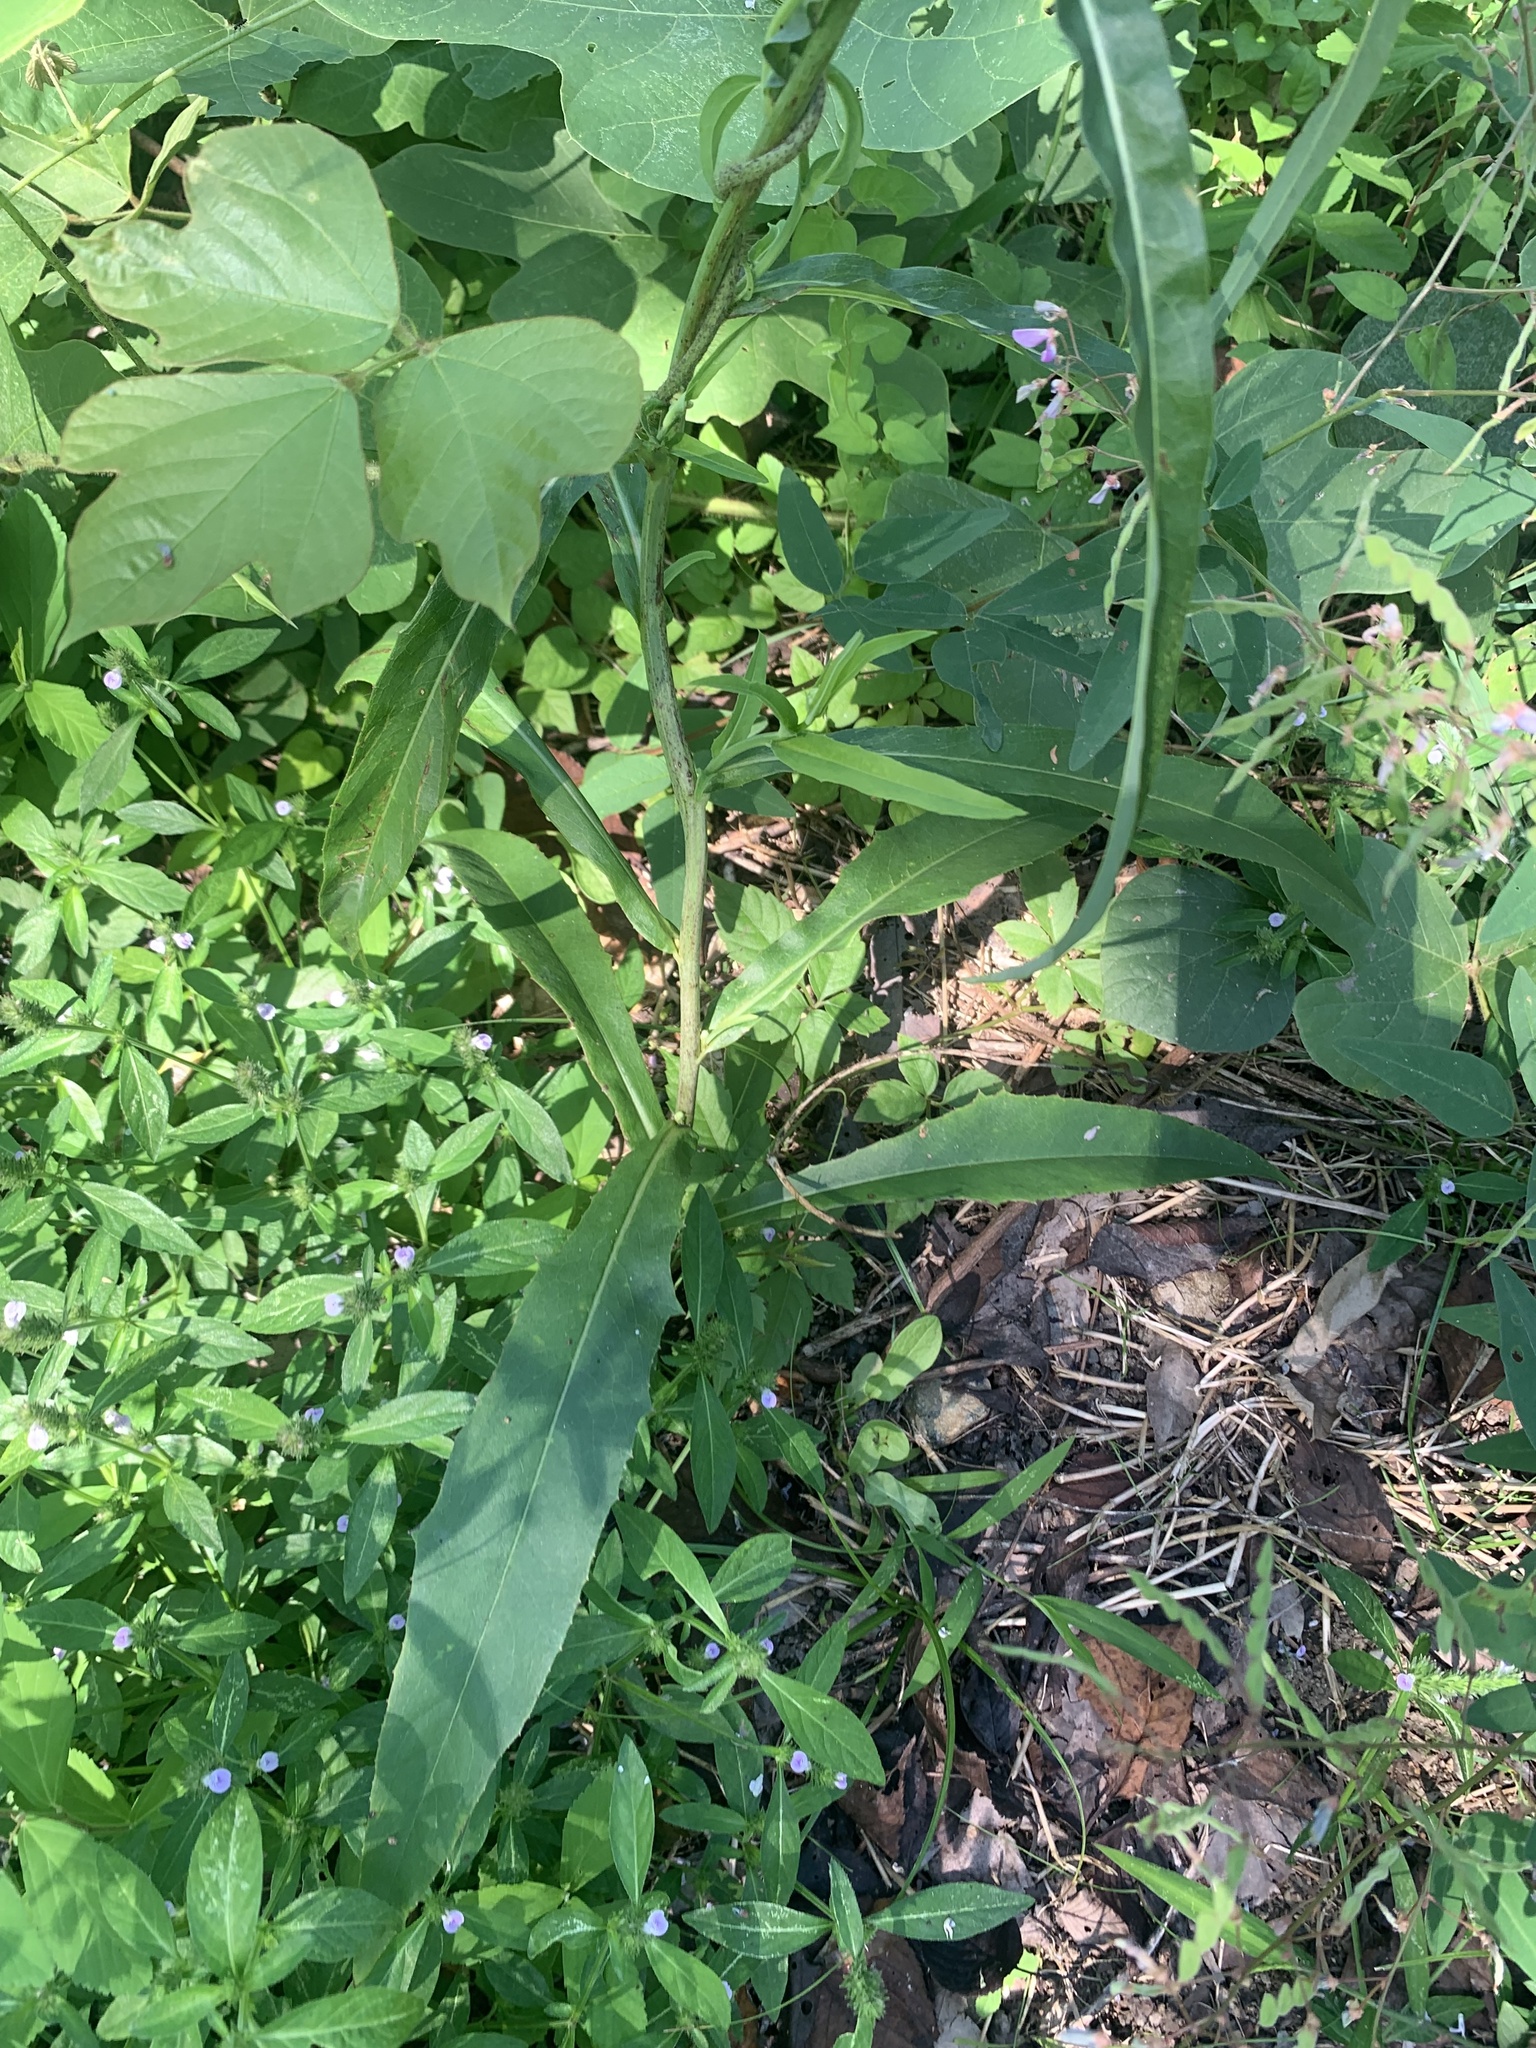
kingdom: Plantae
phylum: Tracheophyta
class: Magnoliopsida
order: Asterales
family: Asteraceae
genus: Lactuca
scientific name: Lactuca indica
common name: Wild lettuce
